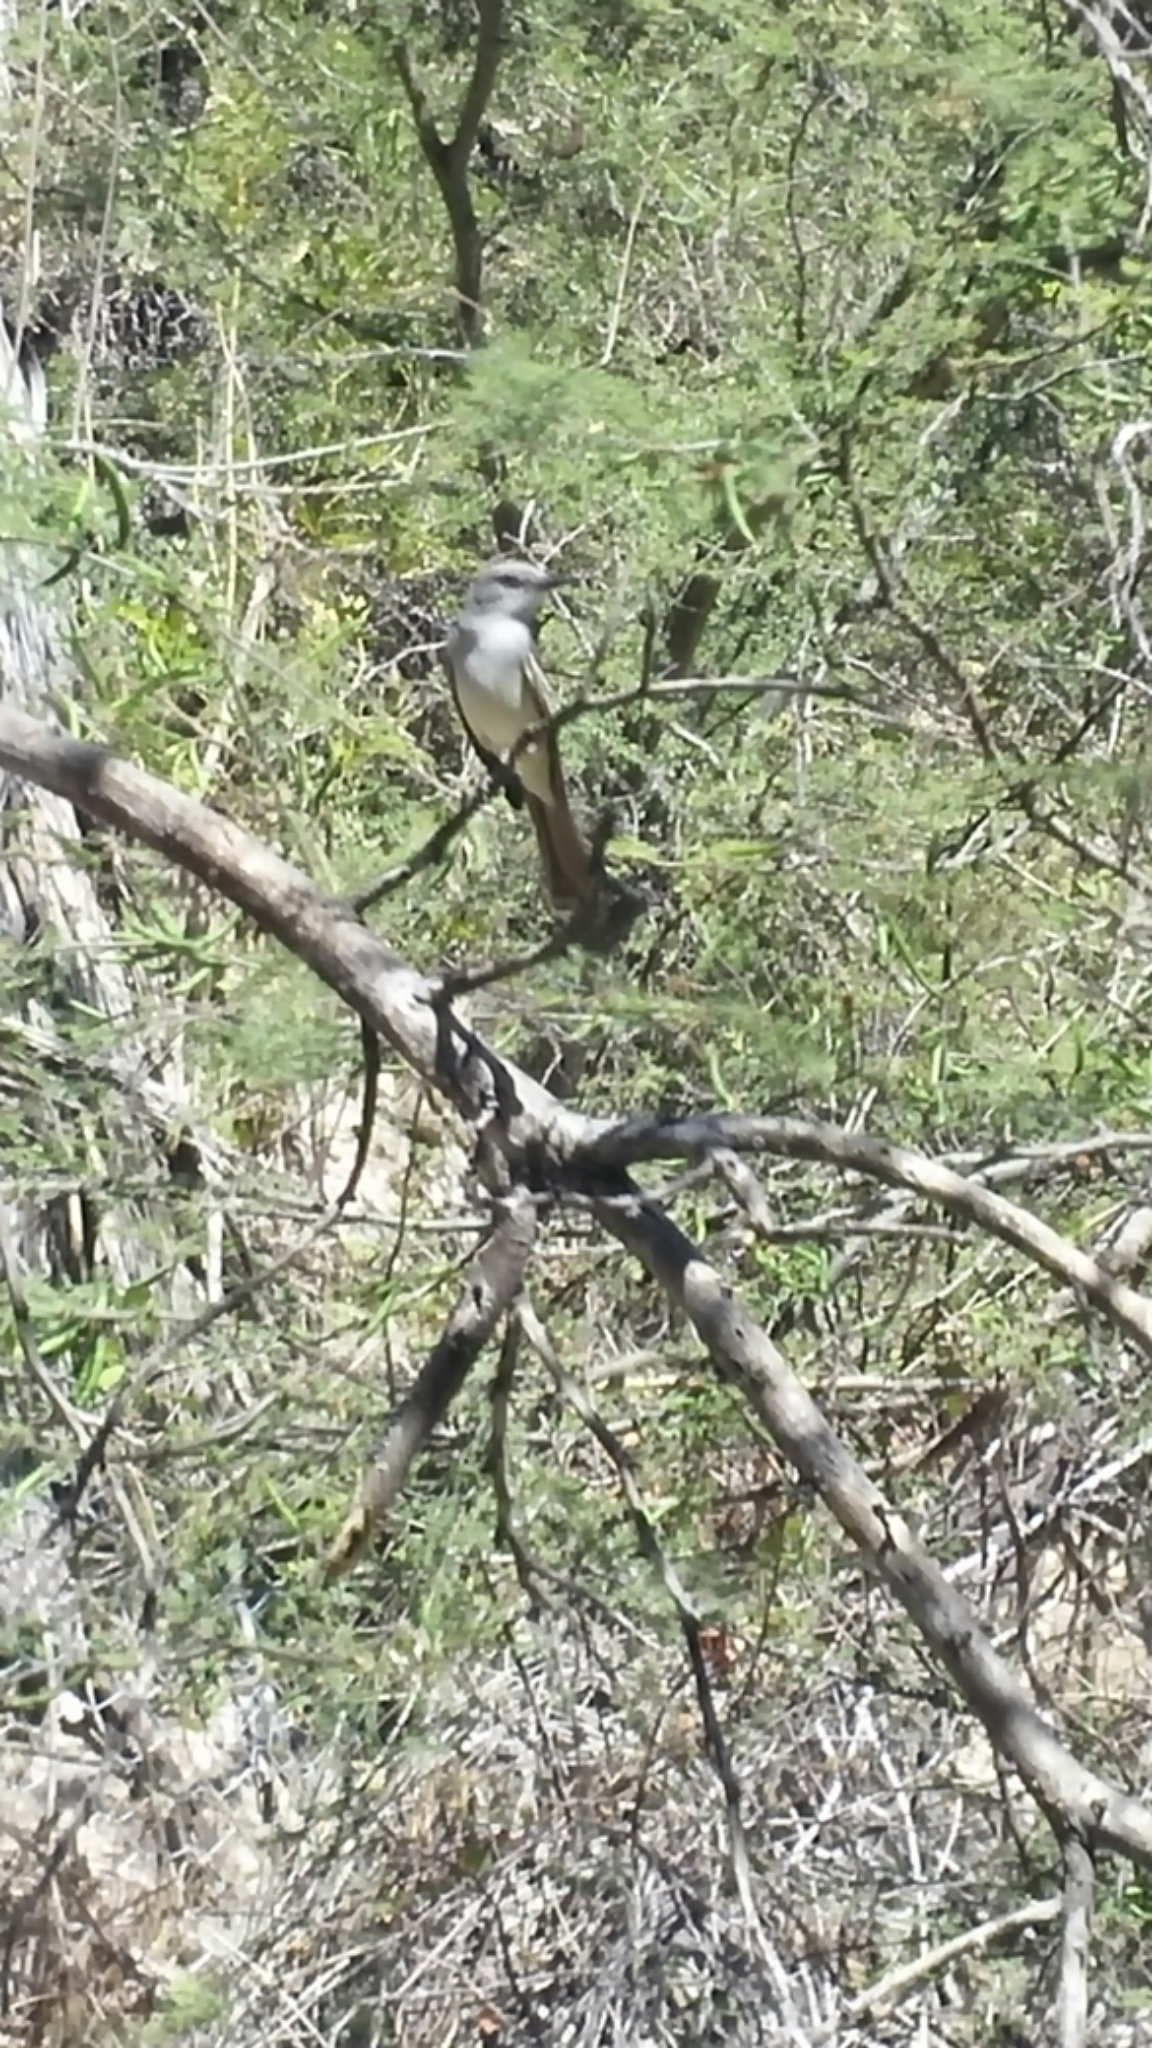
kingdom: Animalia
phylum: Chordata
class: Aves
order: Passeriformes
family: Tyrannidae
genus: Myiarchus
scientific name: Myiarchus cinerascens
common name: Ash-throated flycatcher
